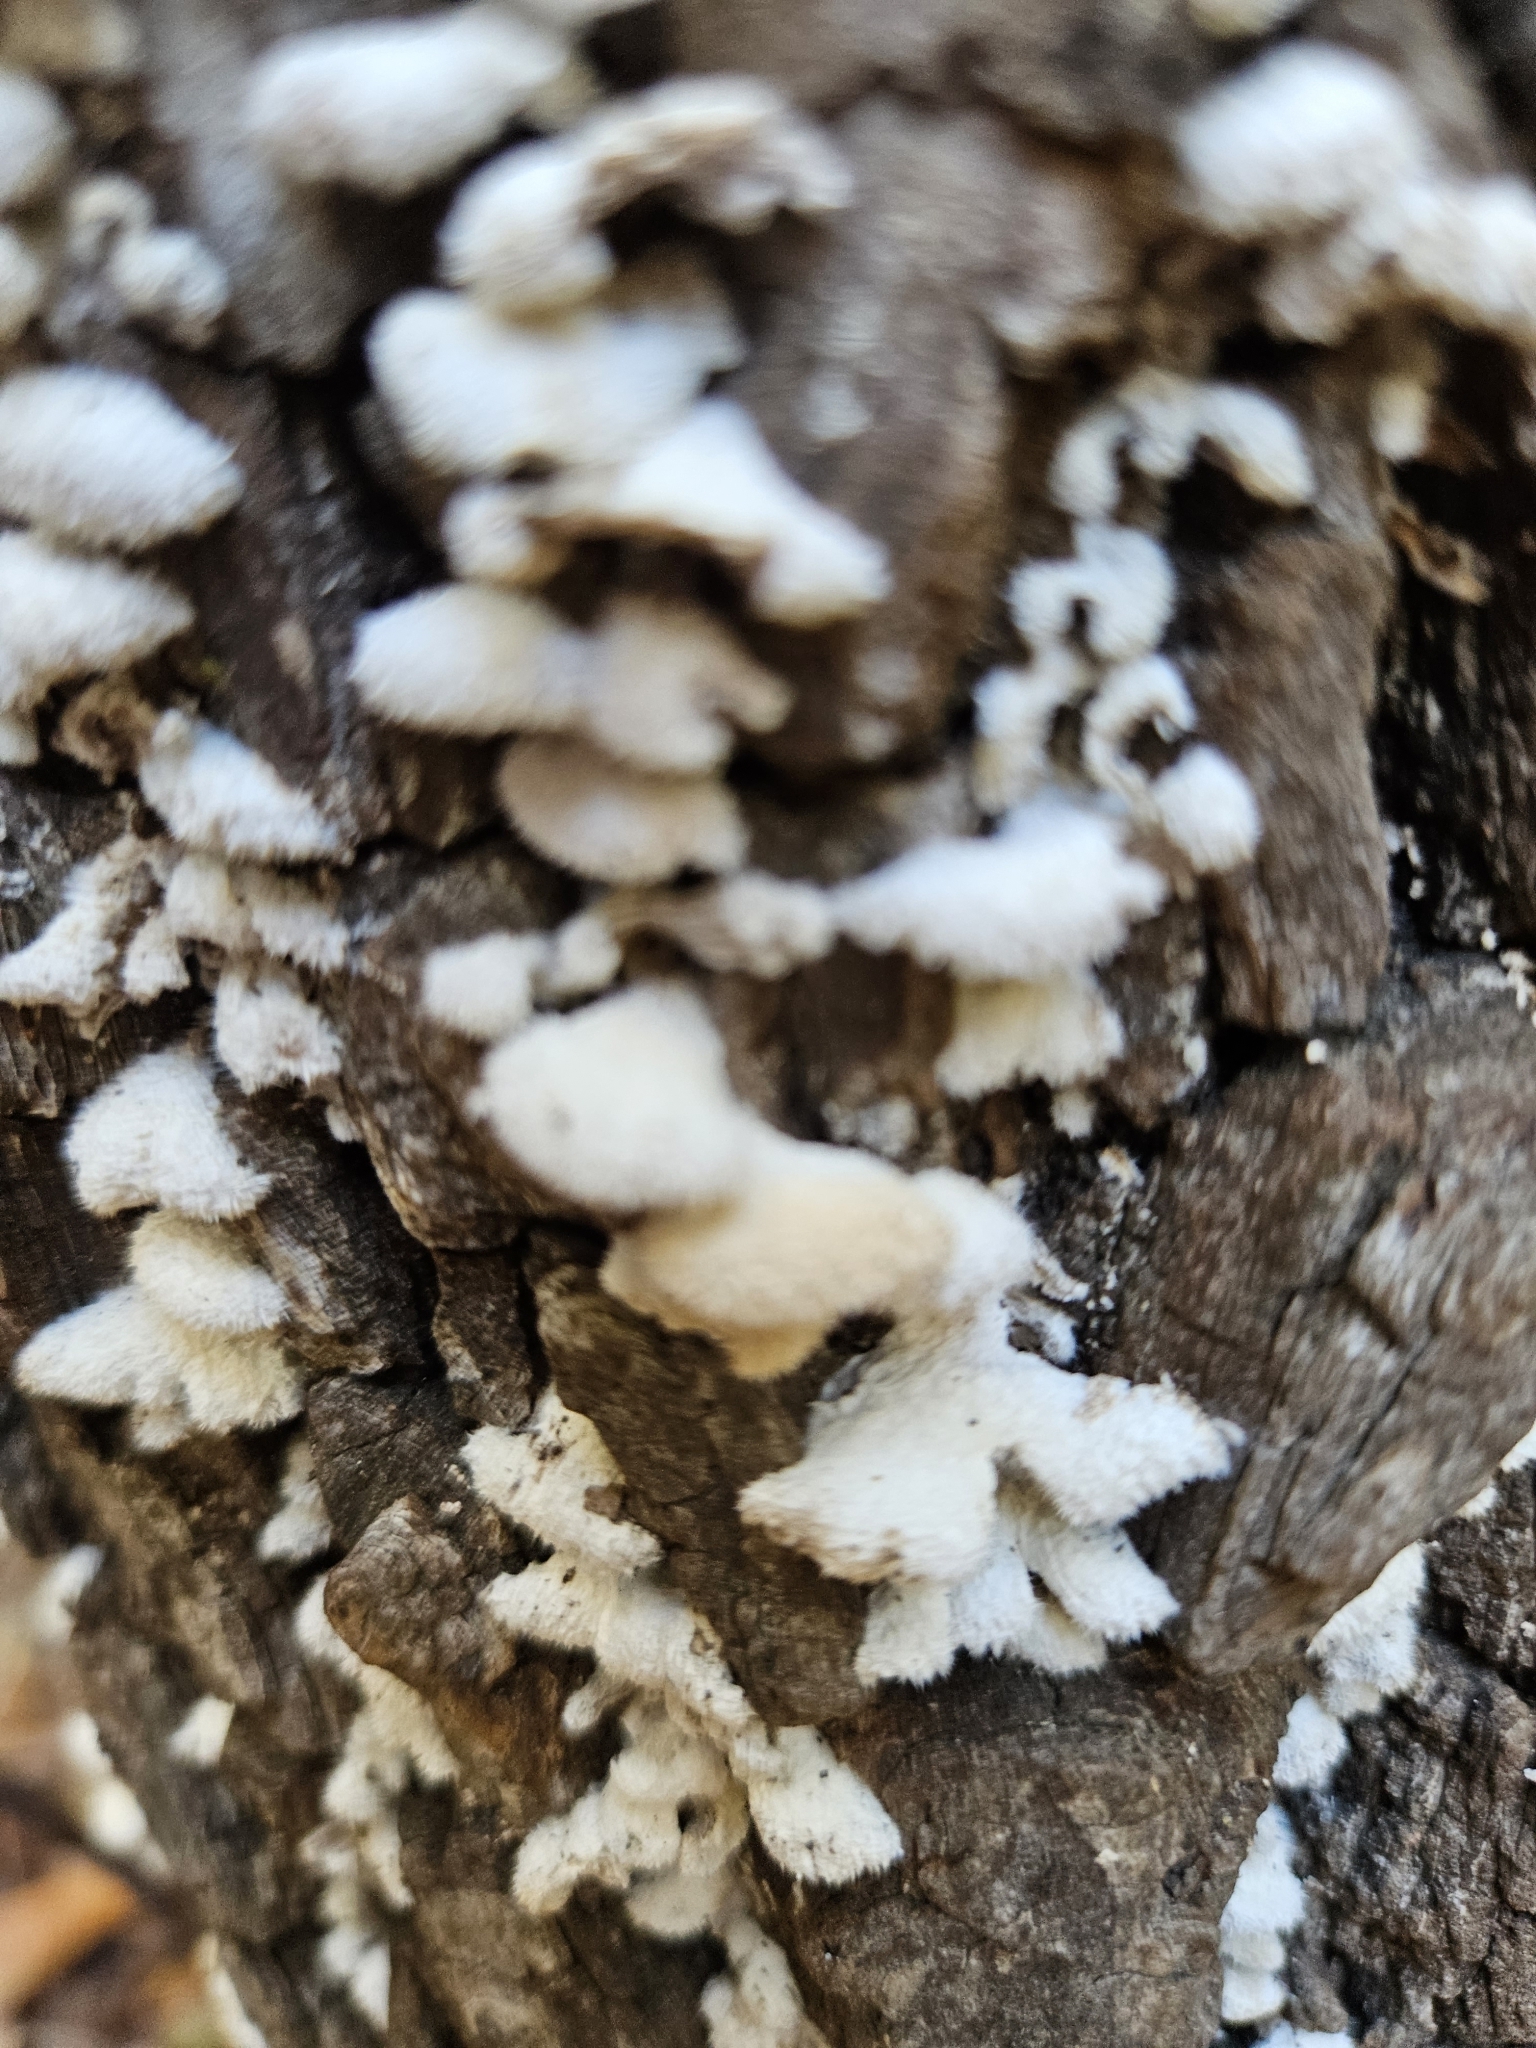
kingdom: Fungi
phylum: Basidiomycota
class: Agaricomycetes
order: Agaricales
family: Schizophyllaceae
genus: Schizophyllum
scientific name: Schizophyllum commune
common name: Common porecrust
